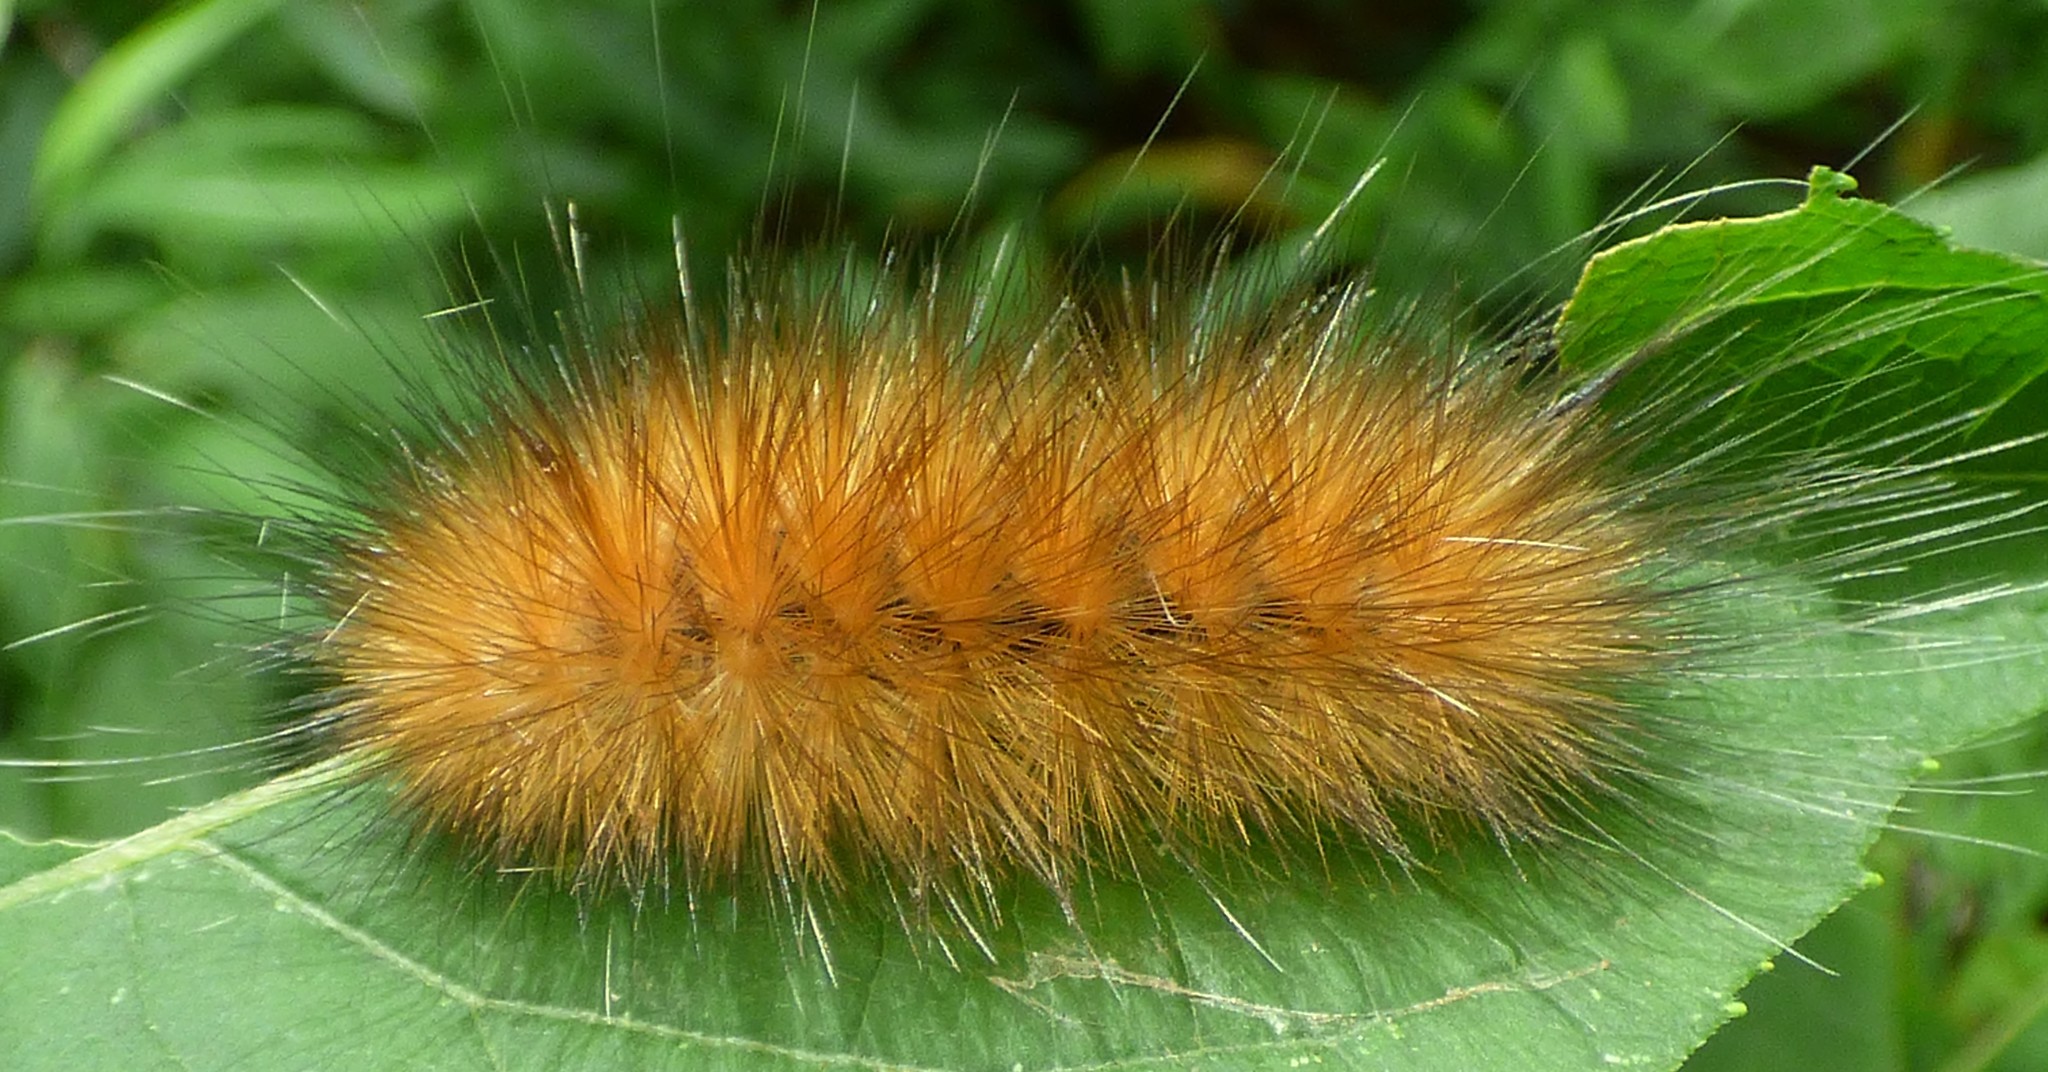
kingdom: Animalia
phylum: Arthropoda
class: Insecta
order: Lepidoptera
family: Erebidae
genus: Spilosoma
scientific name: Spilosoma virginica
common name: Virginia tiger moth
